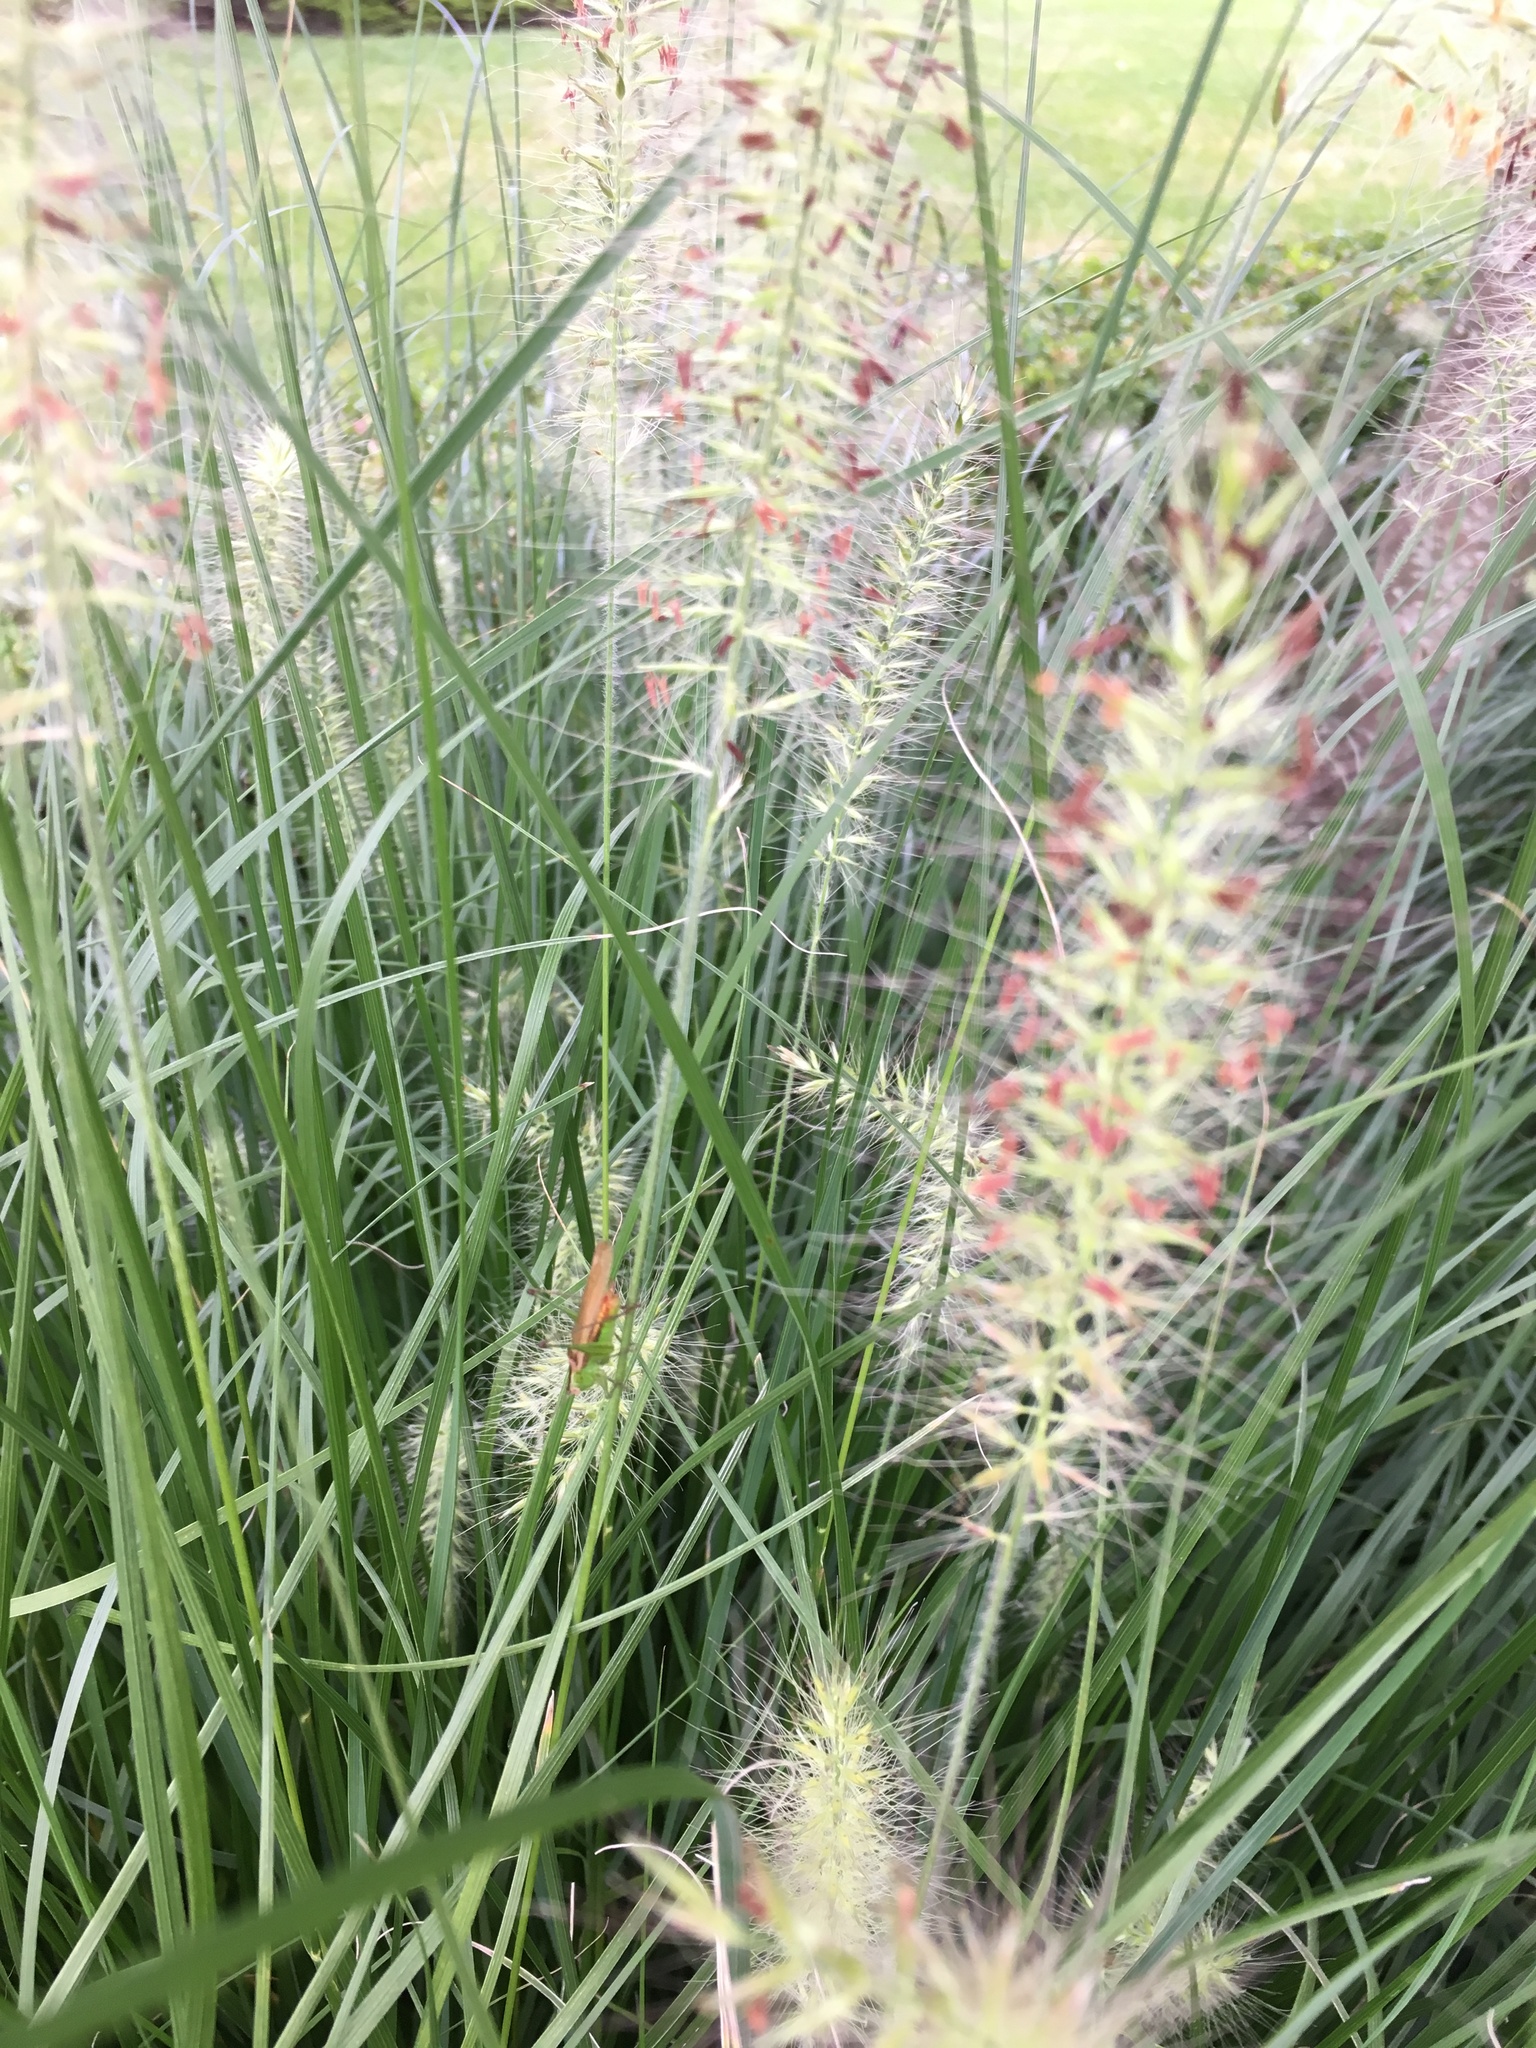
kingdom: Animalia
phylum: Arthropoda
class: Insecta
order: Orthoptera
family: Tettigoniidae
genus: Conocephalus
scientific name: Conocephalus brevipennis
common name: Short-winged meadow katydid
